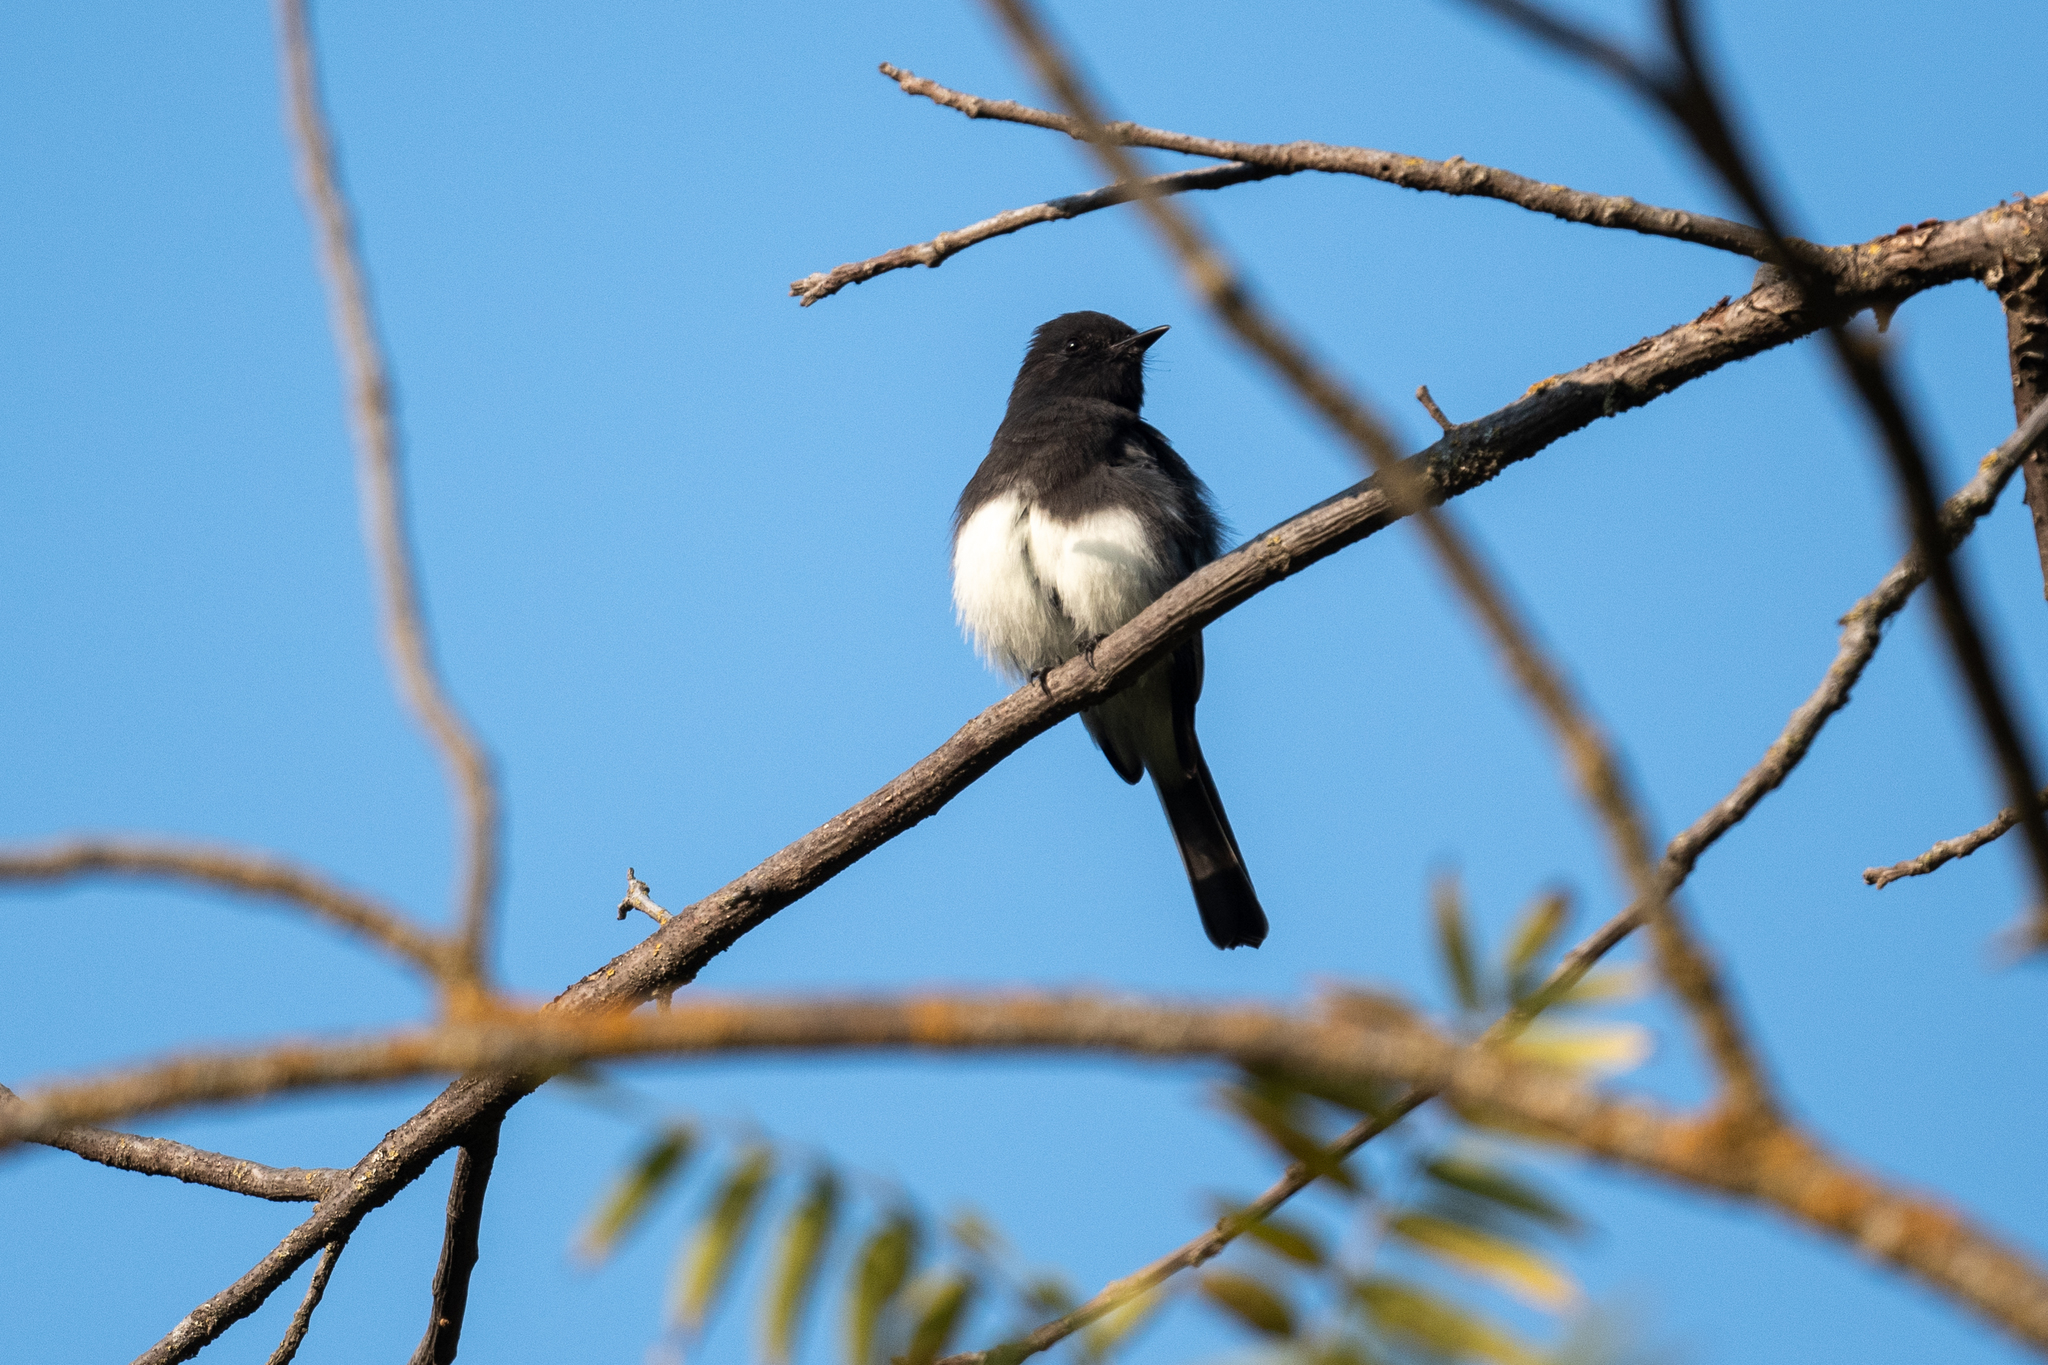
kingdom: Animalia
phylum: Chordata
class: Aves
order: Passeriformes
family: Tyrannidae
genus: Sayornis
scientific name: Sayornis nigricans
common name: Black phoebe
